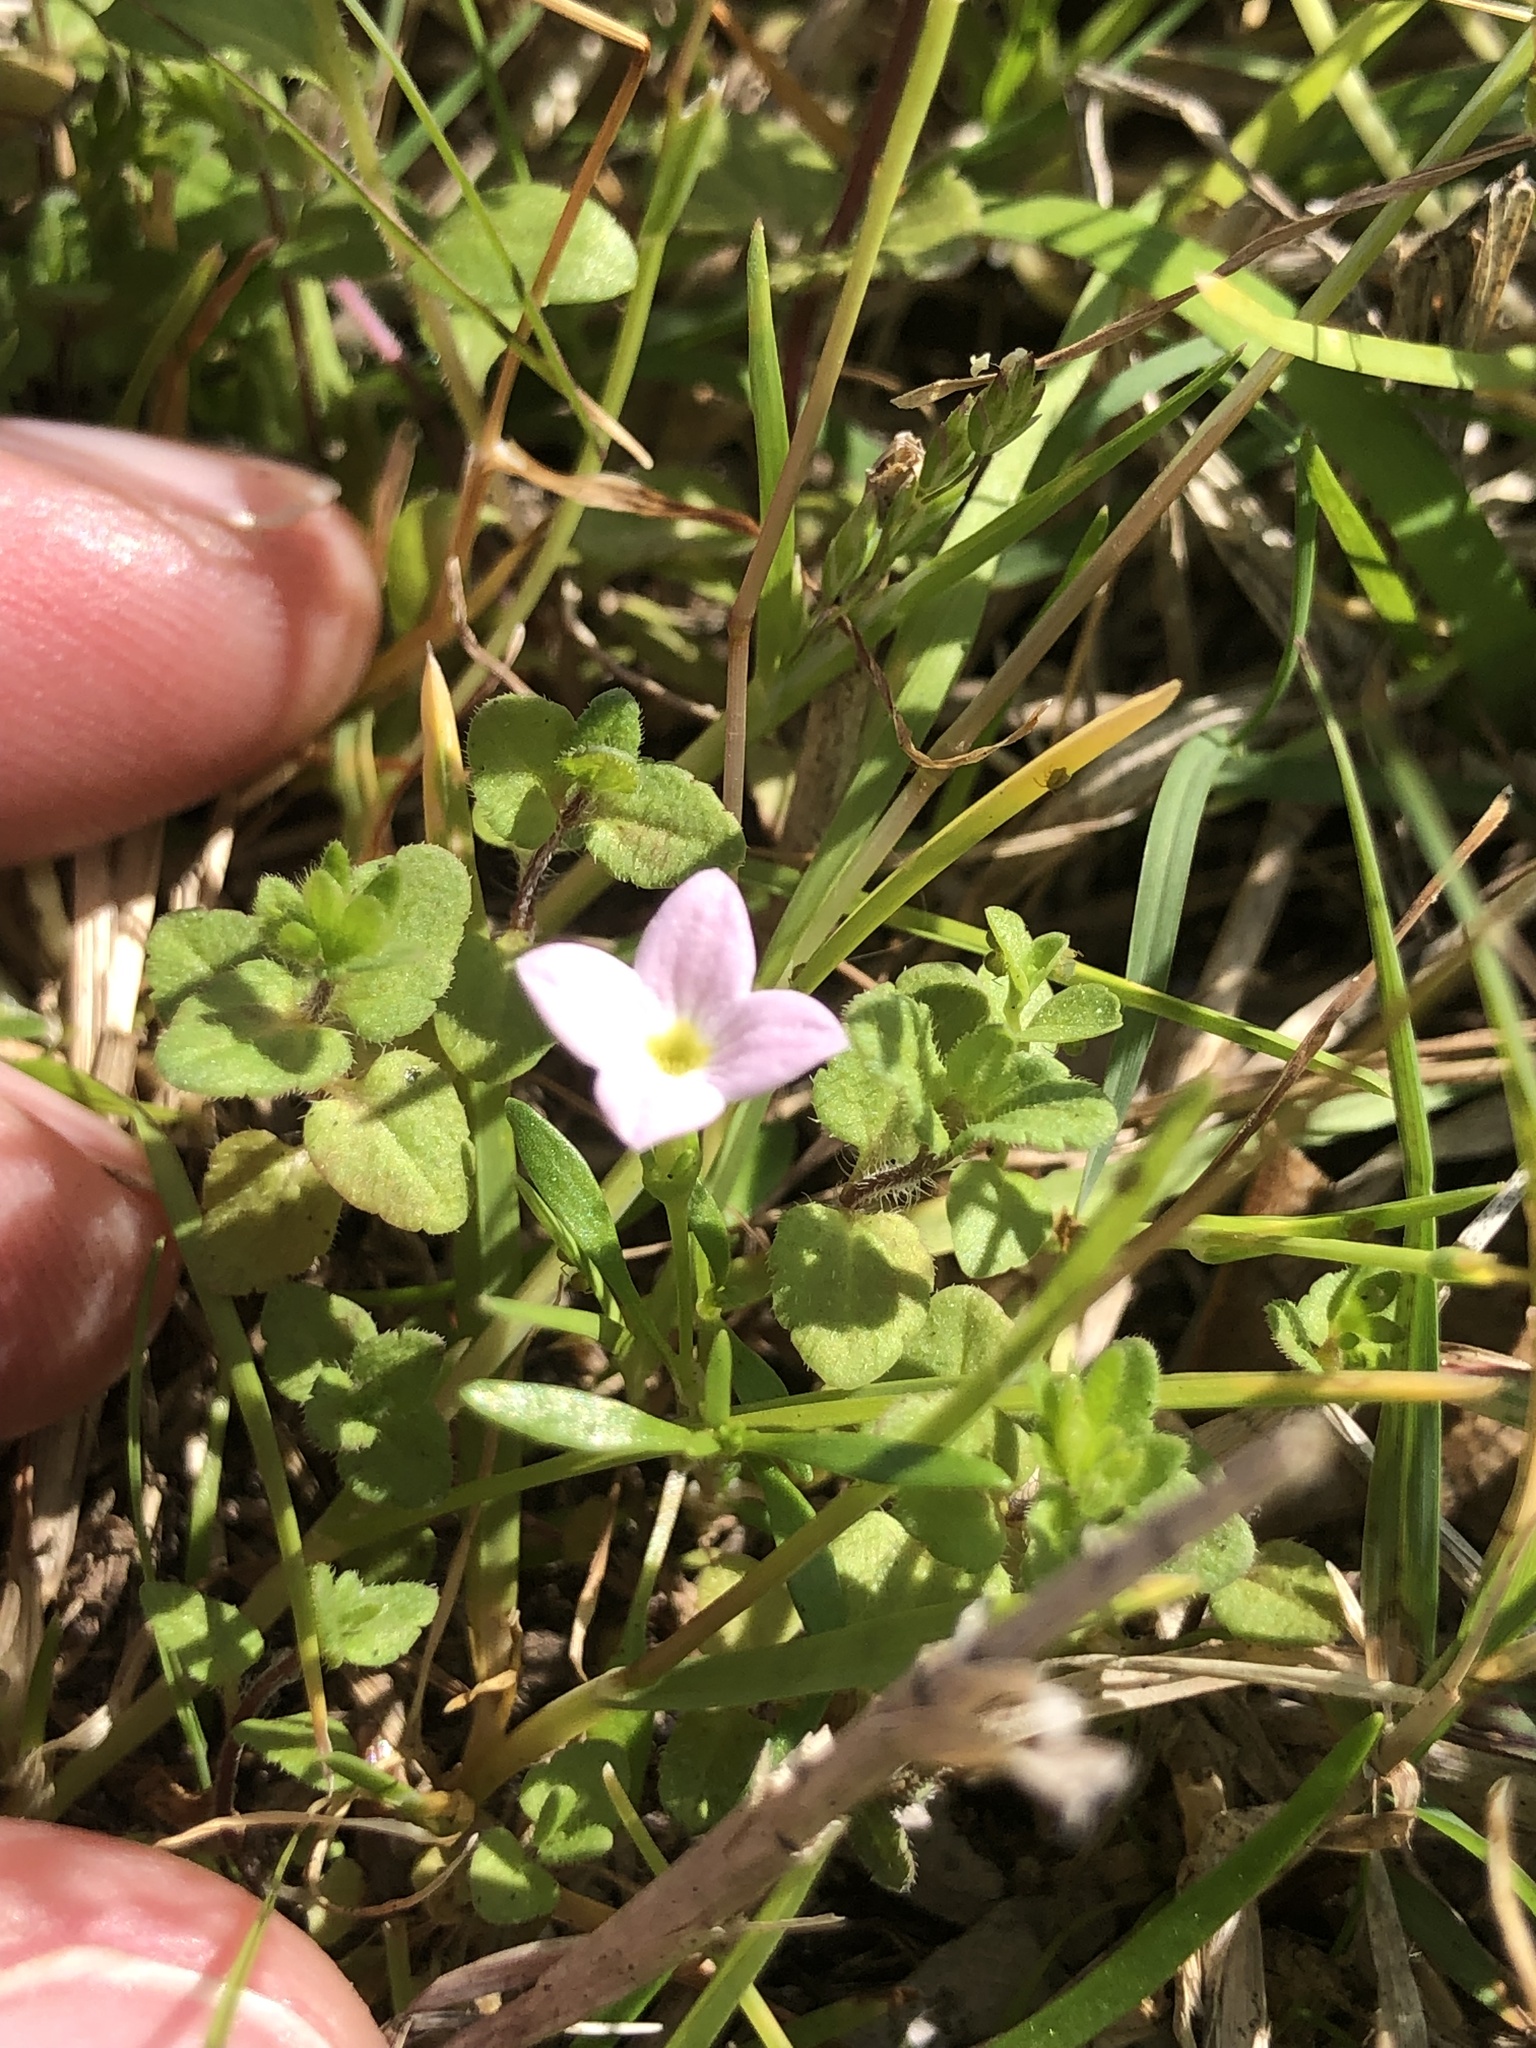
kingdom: Plantae
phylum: Tracheophyta
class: Magnoliopsida
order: Gentianales
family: Rubiaceae
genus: Houstonia
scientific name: Houstonia rosea
